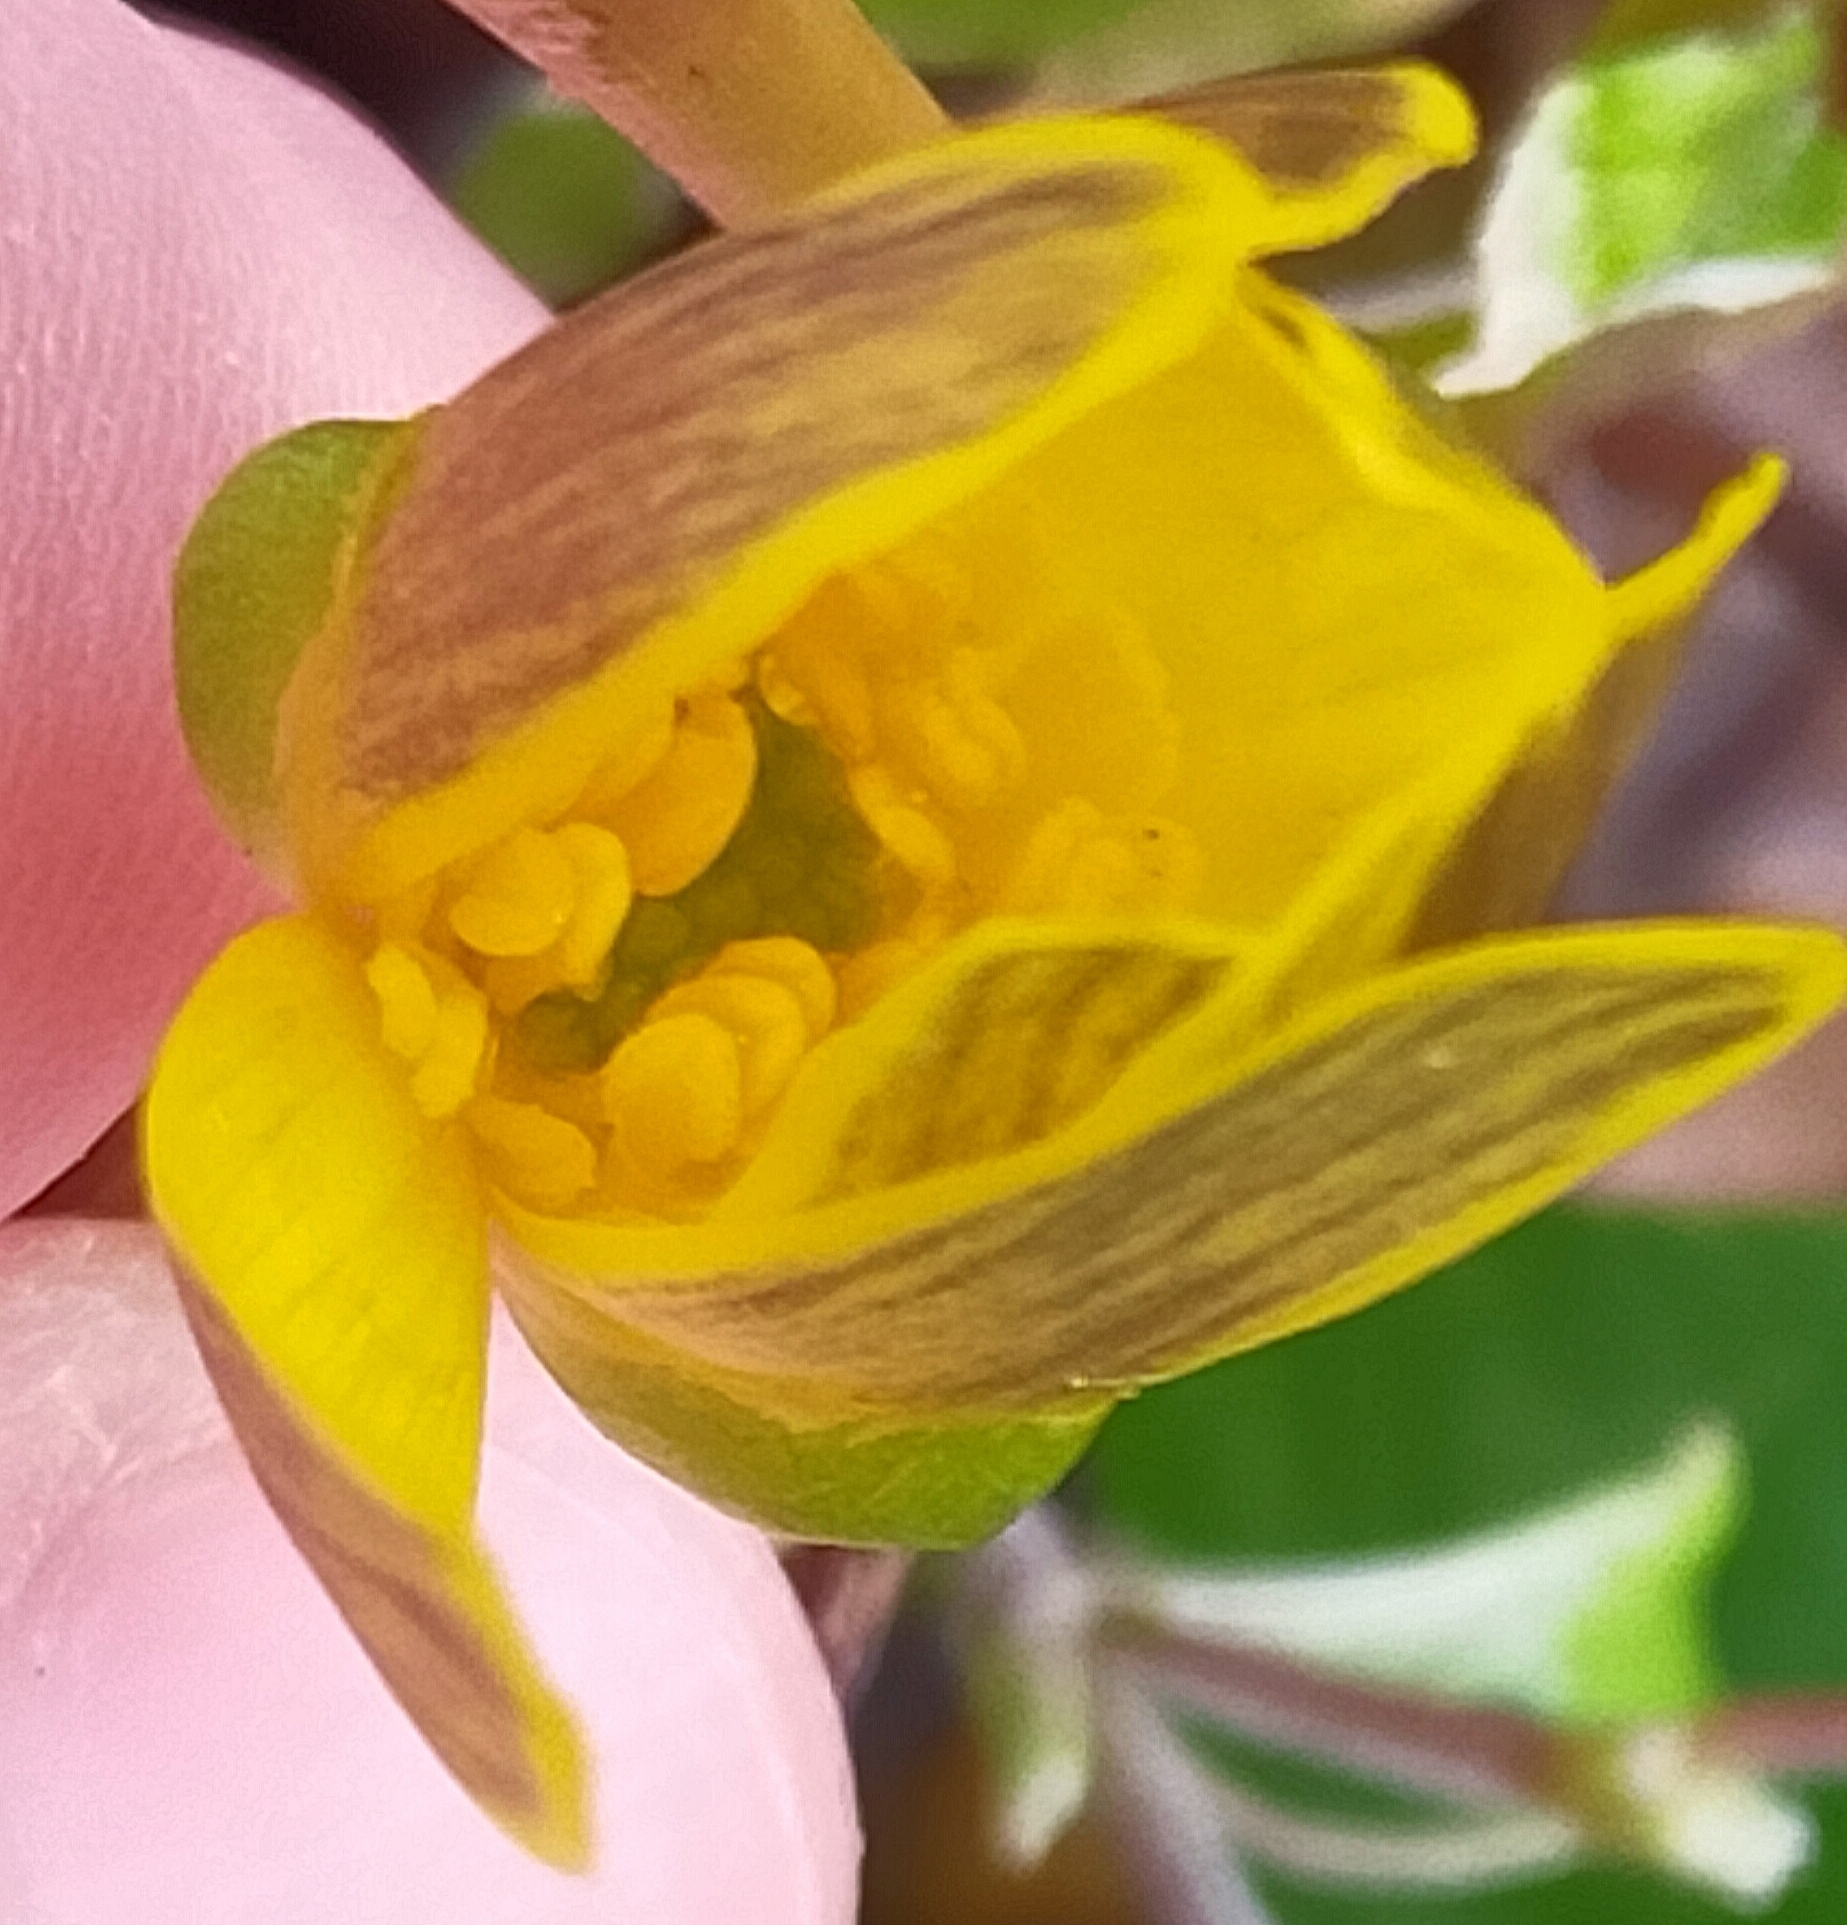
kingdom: Plantae
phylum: Tracheophyta
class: Magnoliopsida
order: Ranunculales
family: Ranunculaceae
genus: Ficaria
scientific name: Ficaria verna
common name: Lesser celandine
